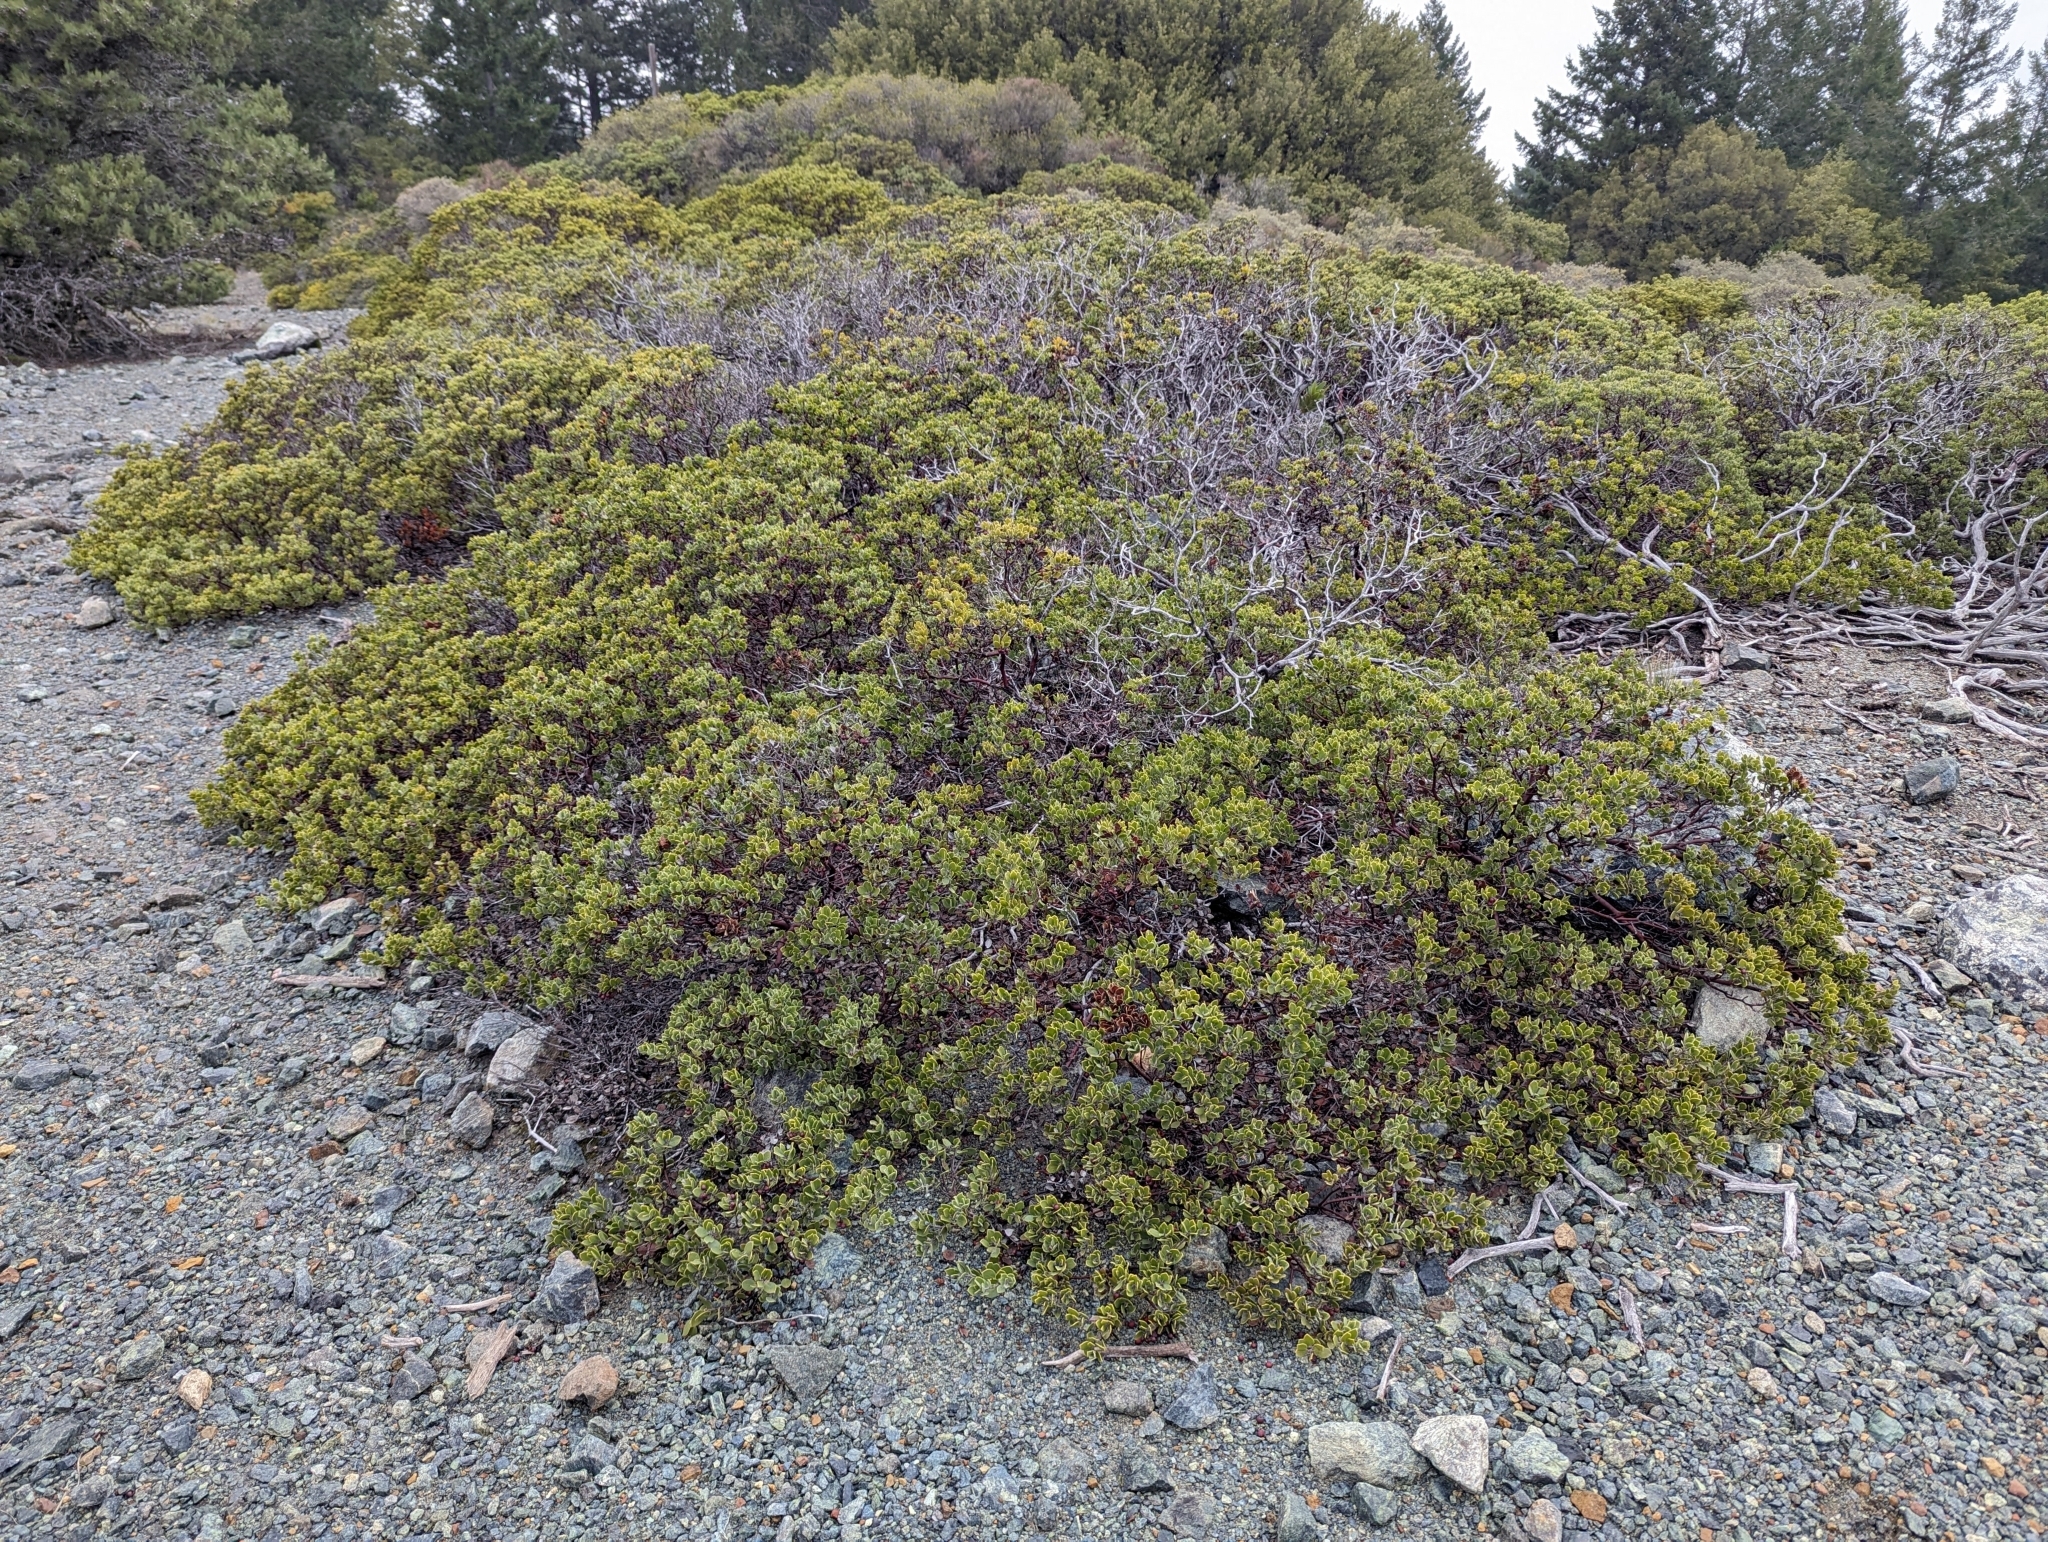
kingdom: Plantae
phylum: Tracheophyta
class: Magnoliopsida
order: Ericales
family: Ericaceae
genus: Arctostaphylos
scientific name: Arctostaphylos montana
